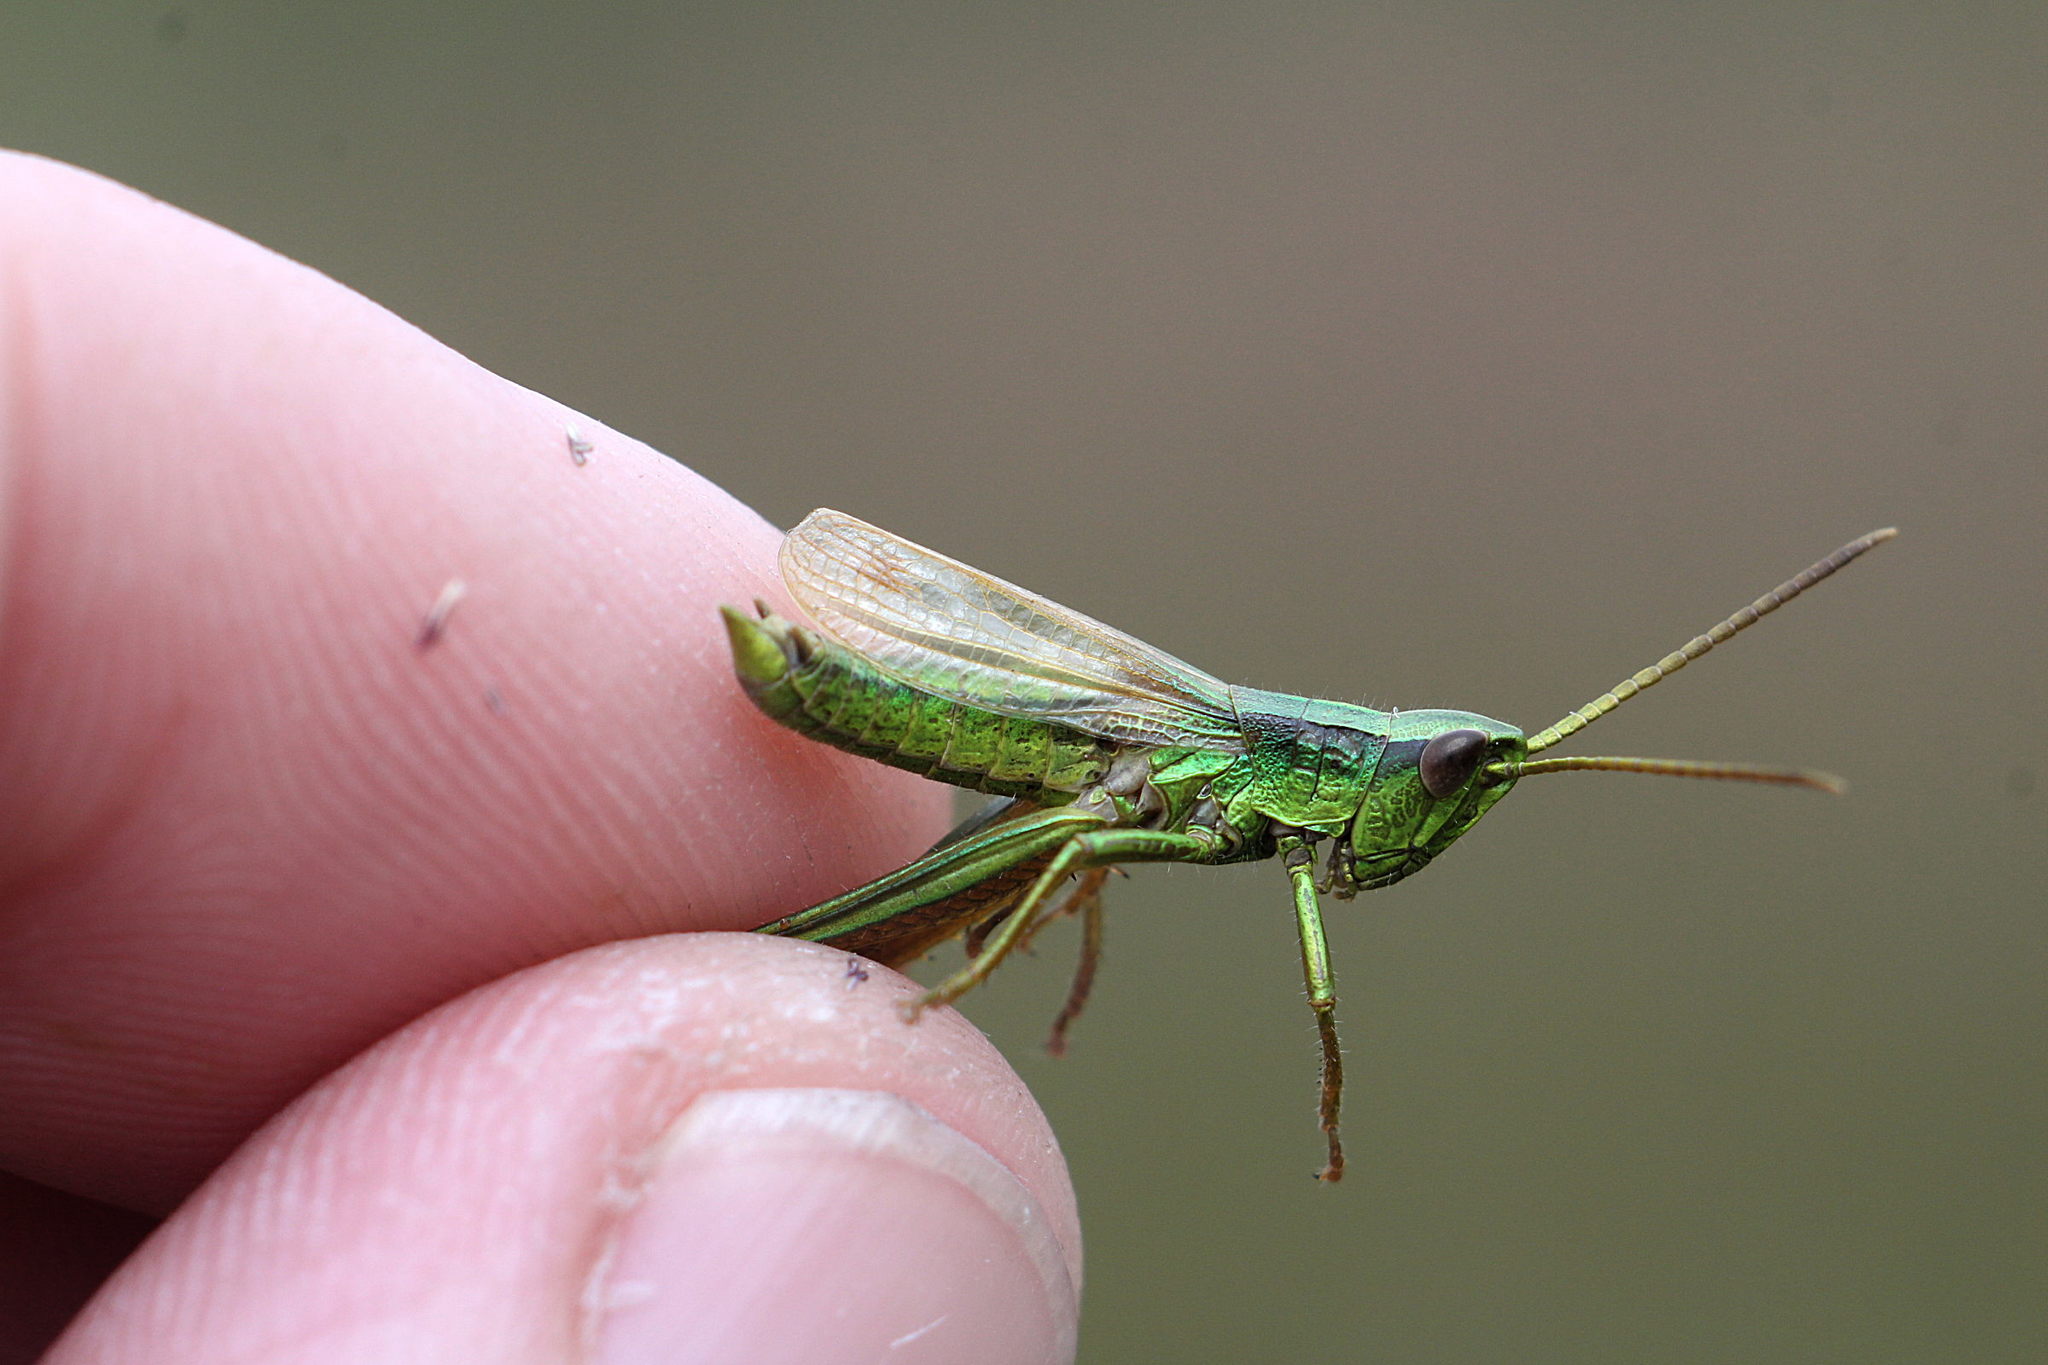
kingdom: Animalia
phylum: Arthropoda
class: Insecta
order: Orthoptera
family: Acrididae
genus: Chrysochraon
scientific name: Chrysochraon dispar
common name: Large gold grasshopper
